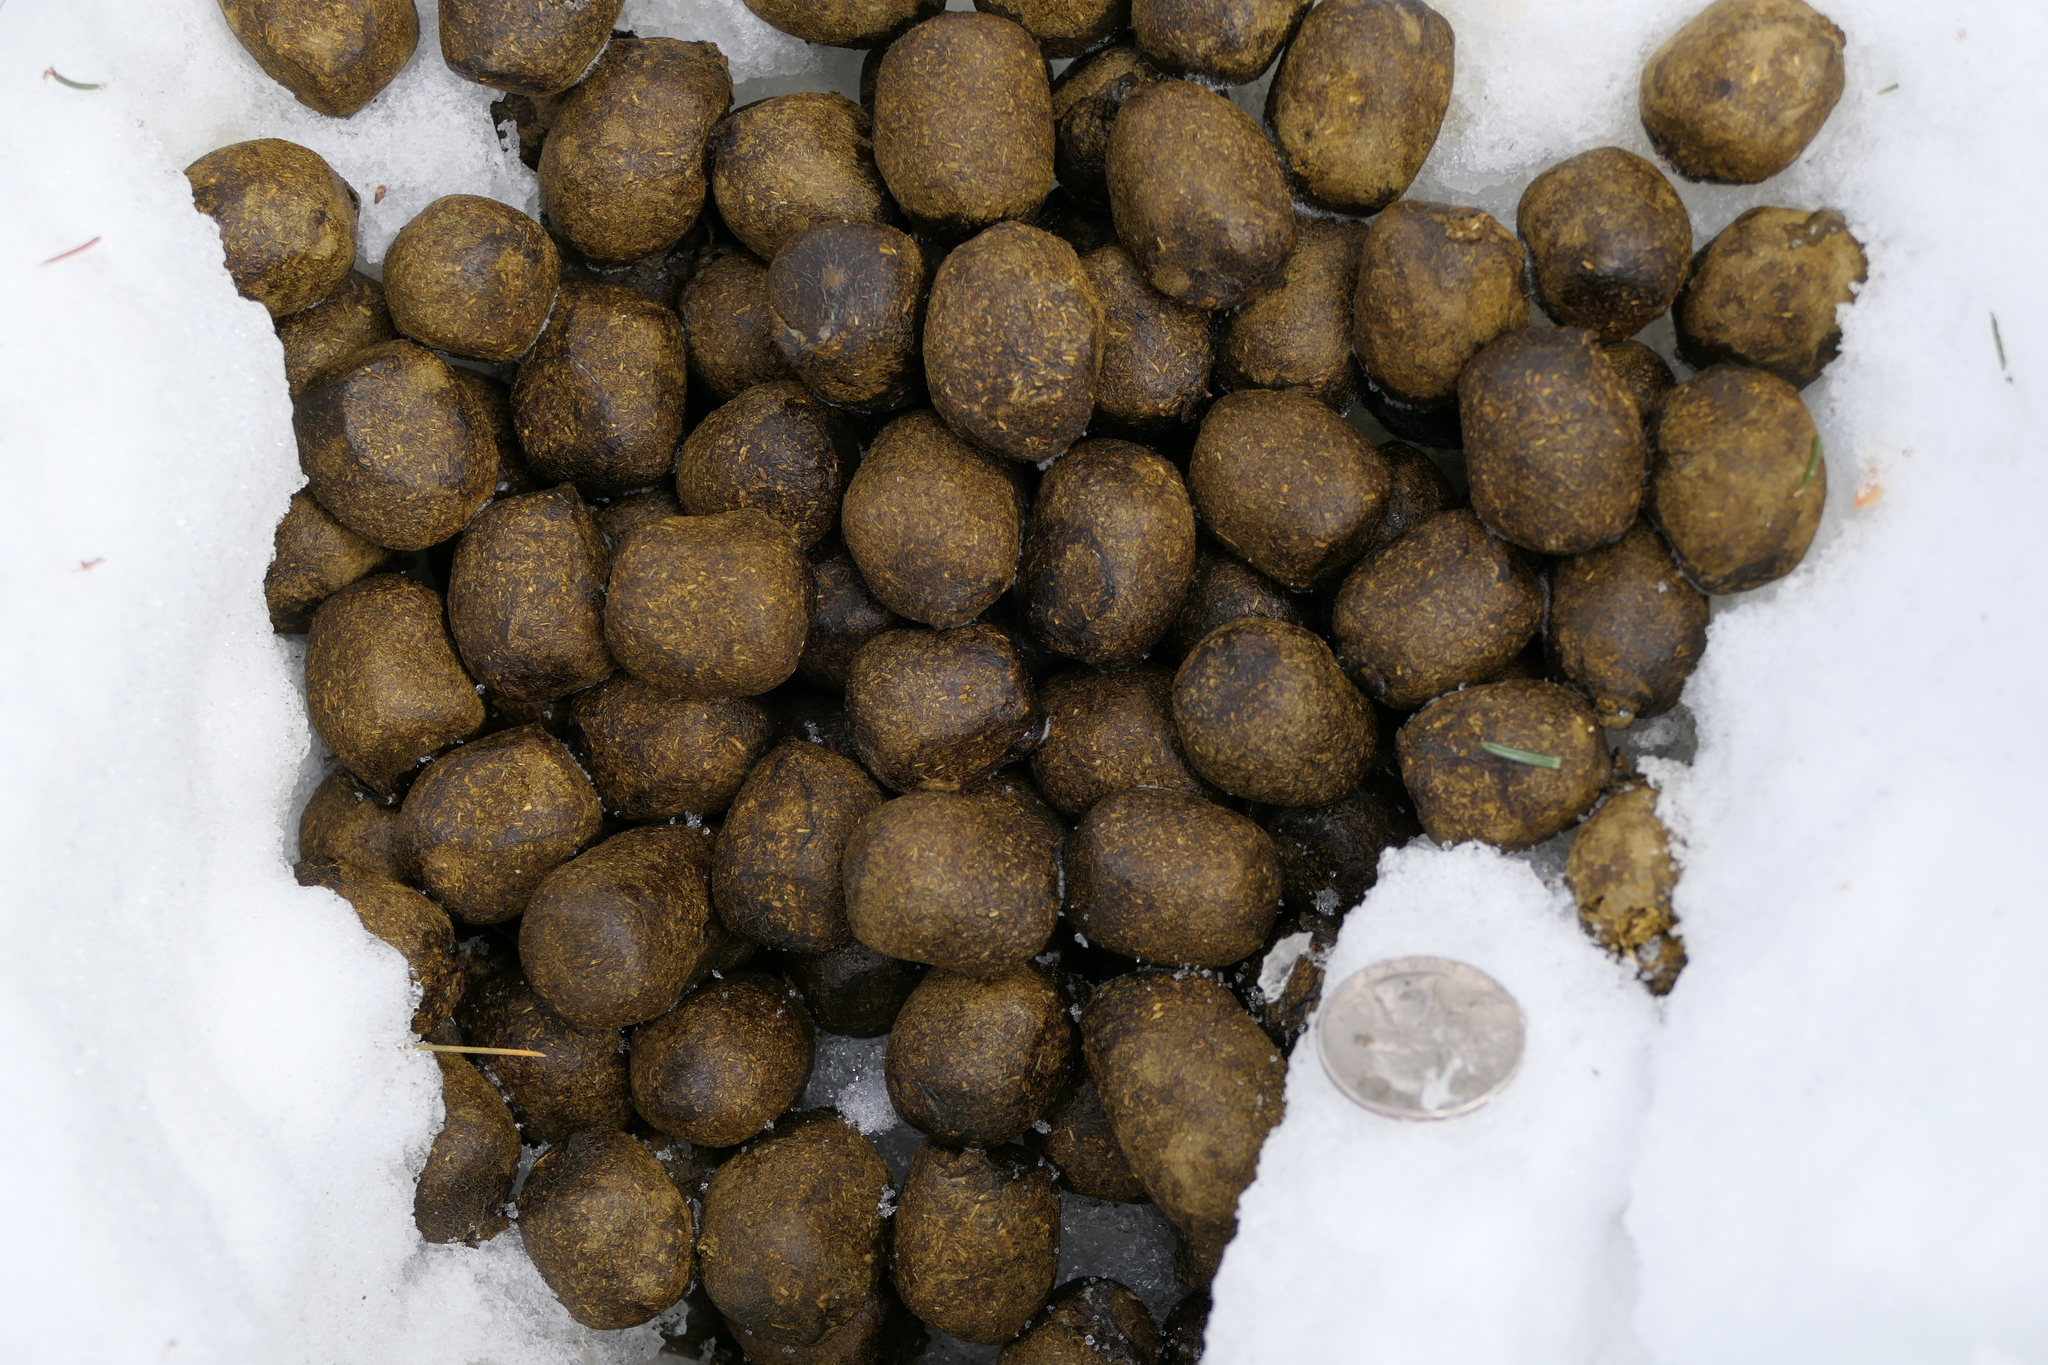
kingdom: Animalia
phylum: Chordata
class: Mammalia
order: Artiodactyla
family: Cervidae
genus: Alces
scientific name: Alces alces
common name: Moose
